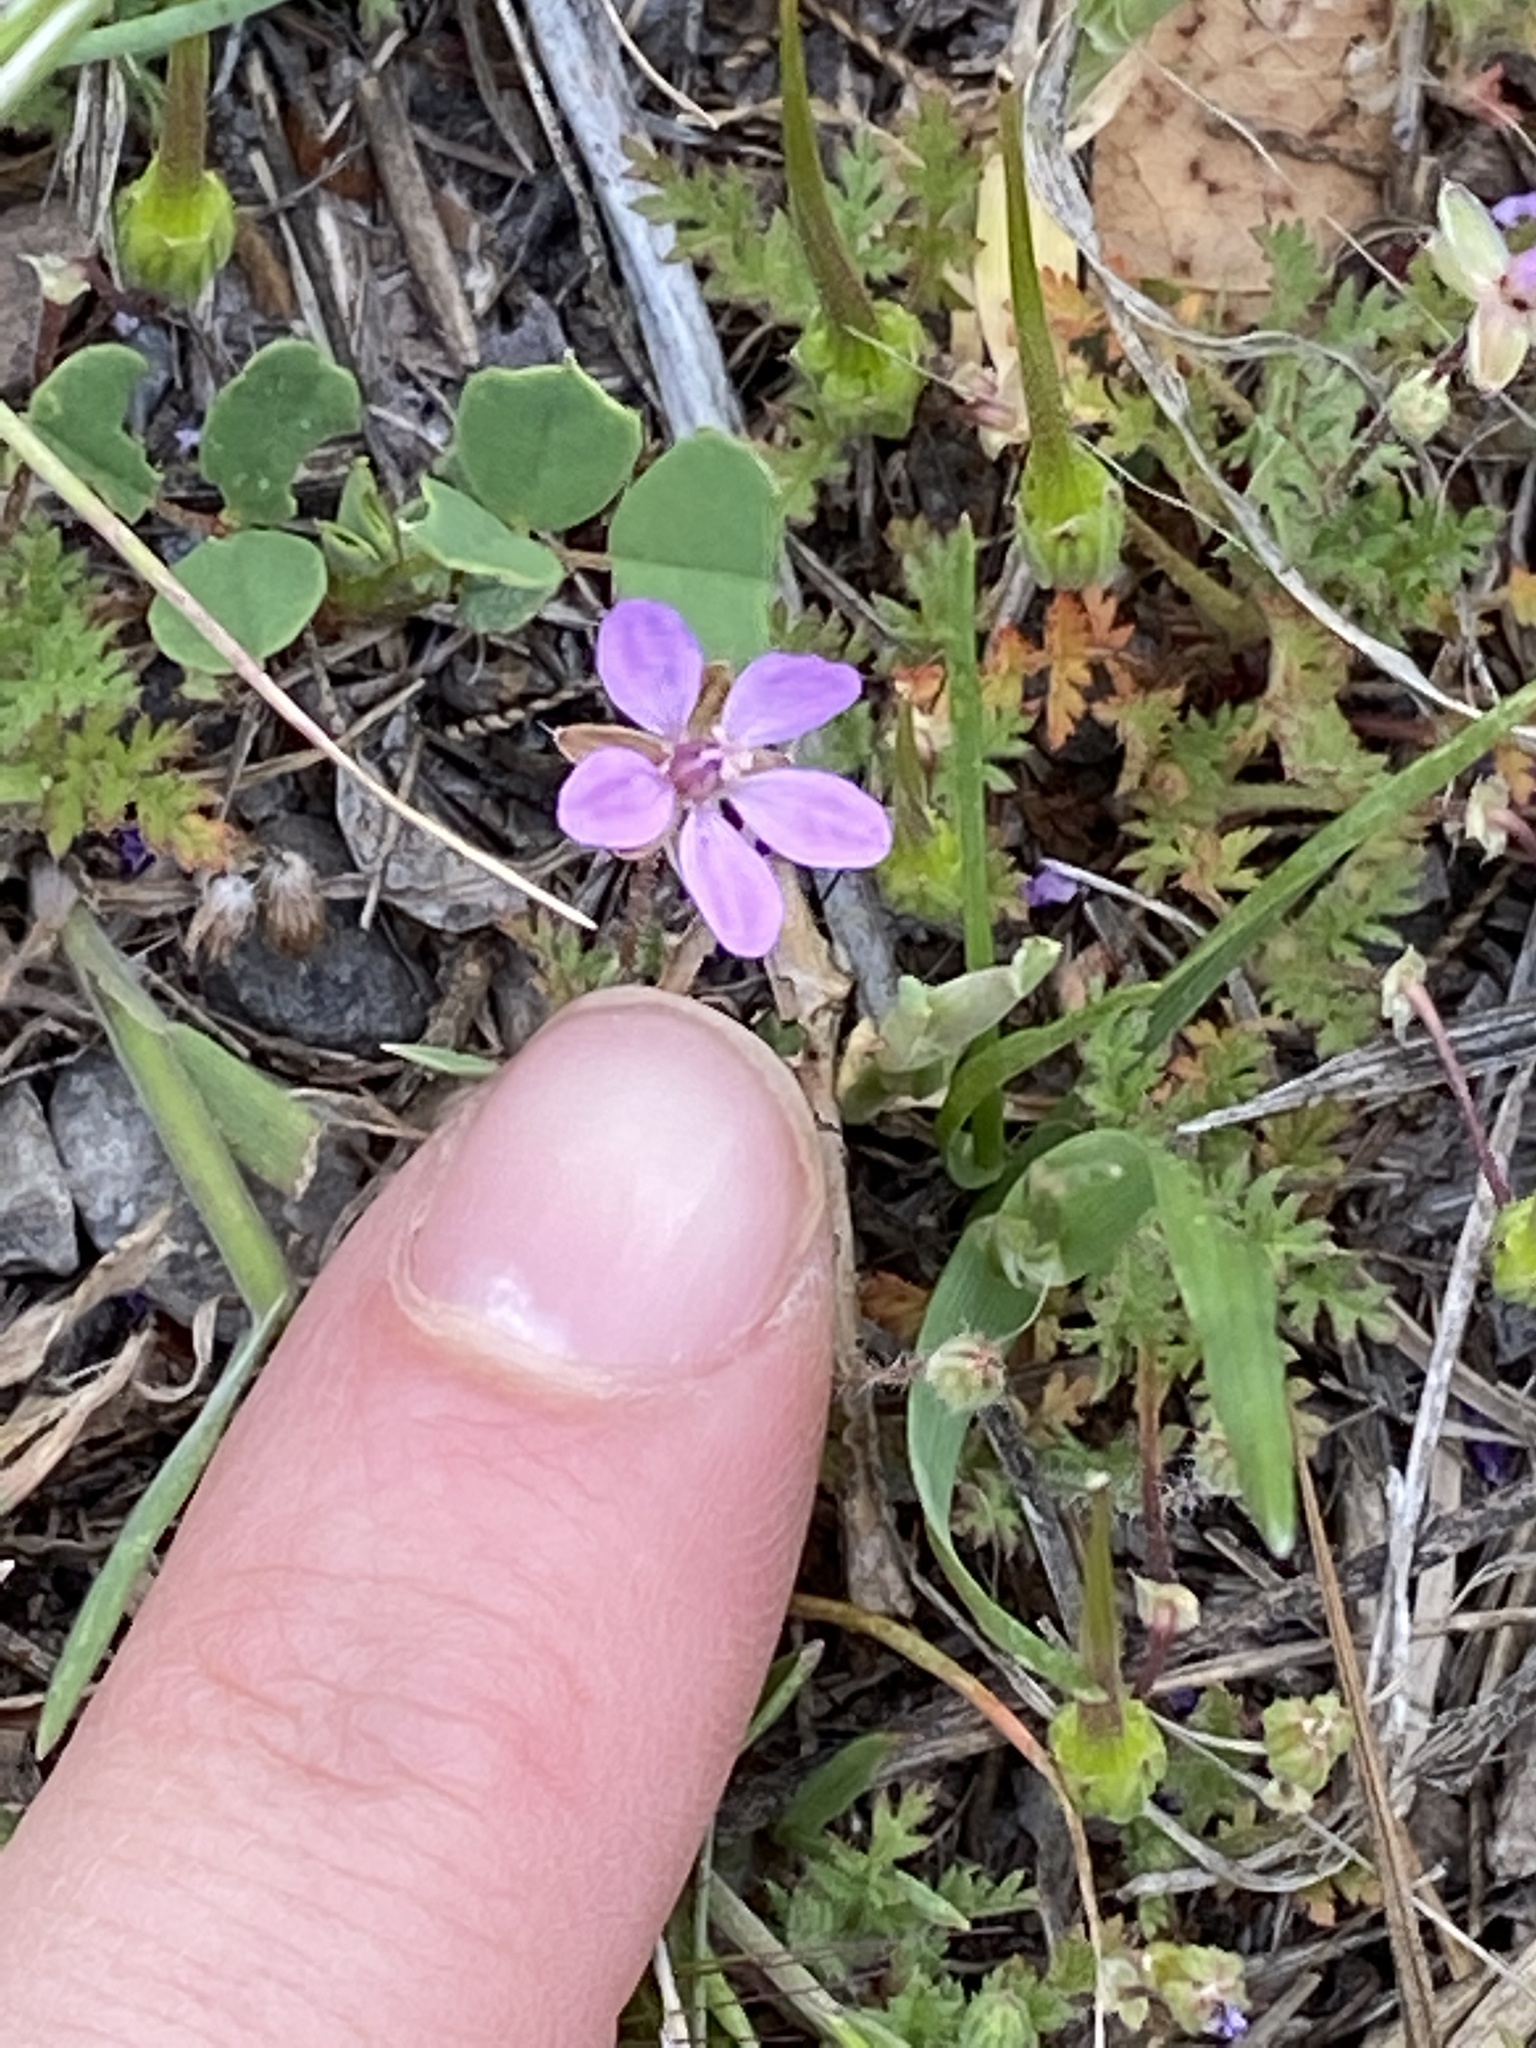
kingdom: Plantae
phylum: Tracheophyta
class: Magnoliopsida
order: Geraniales
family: Geraniaceae
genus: Erodium
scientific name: Erodium cicutarium
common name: Common stork's-bill
